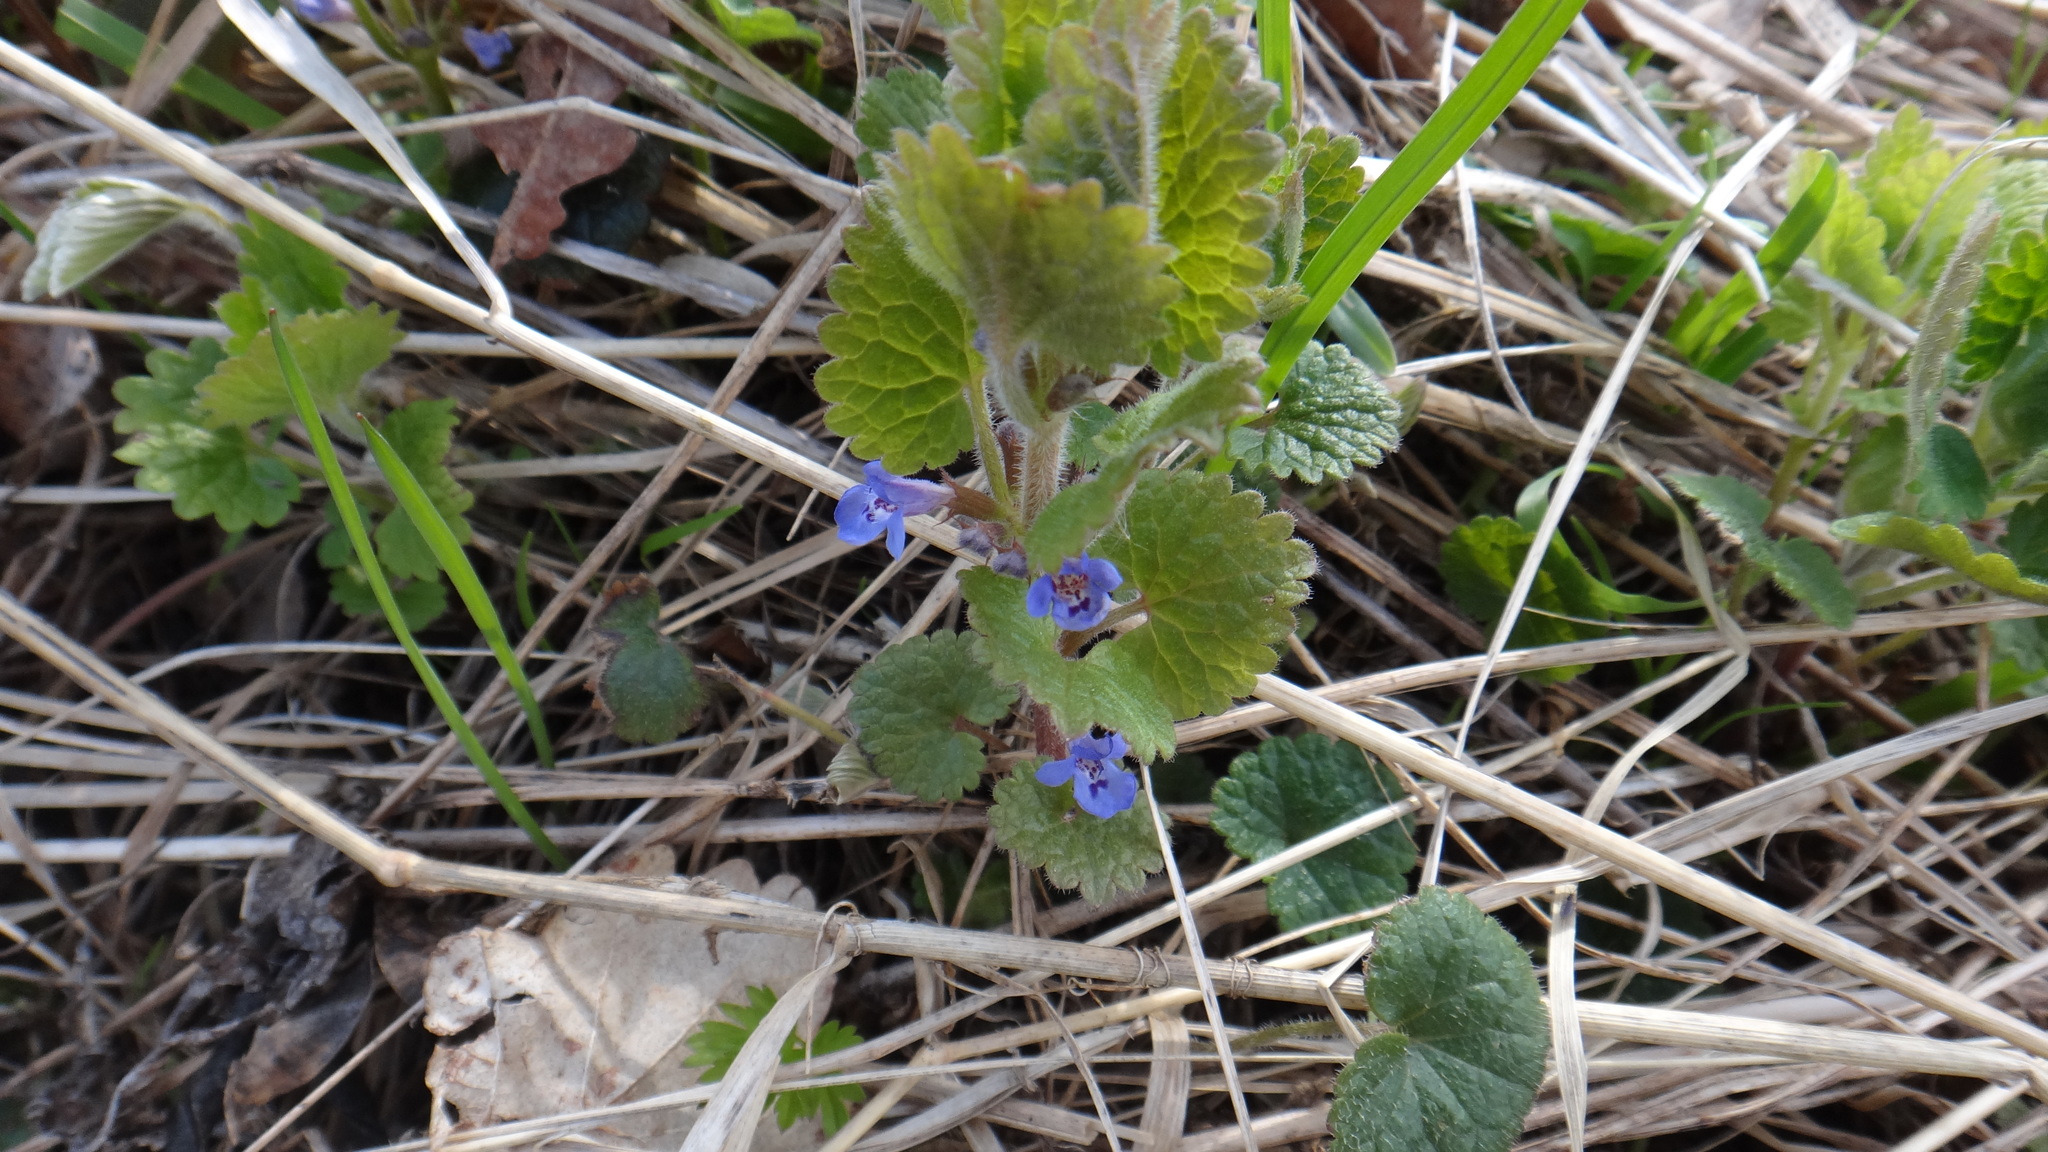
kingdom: Plantae
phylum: Tracheophyta
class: Magnoliopsida
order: Lamiales
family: Lamiaceae
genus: Glechoma
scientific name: Glechoma hederacea
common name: Ground ivy
